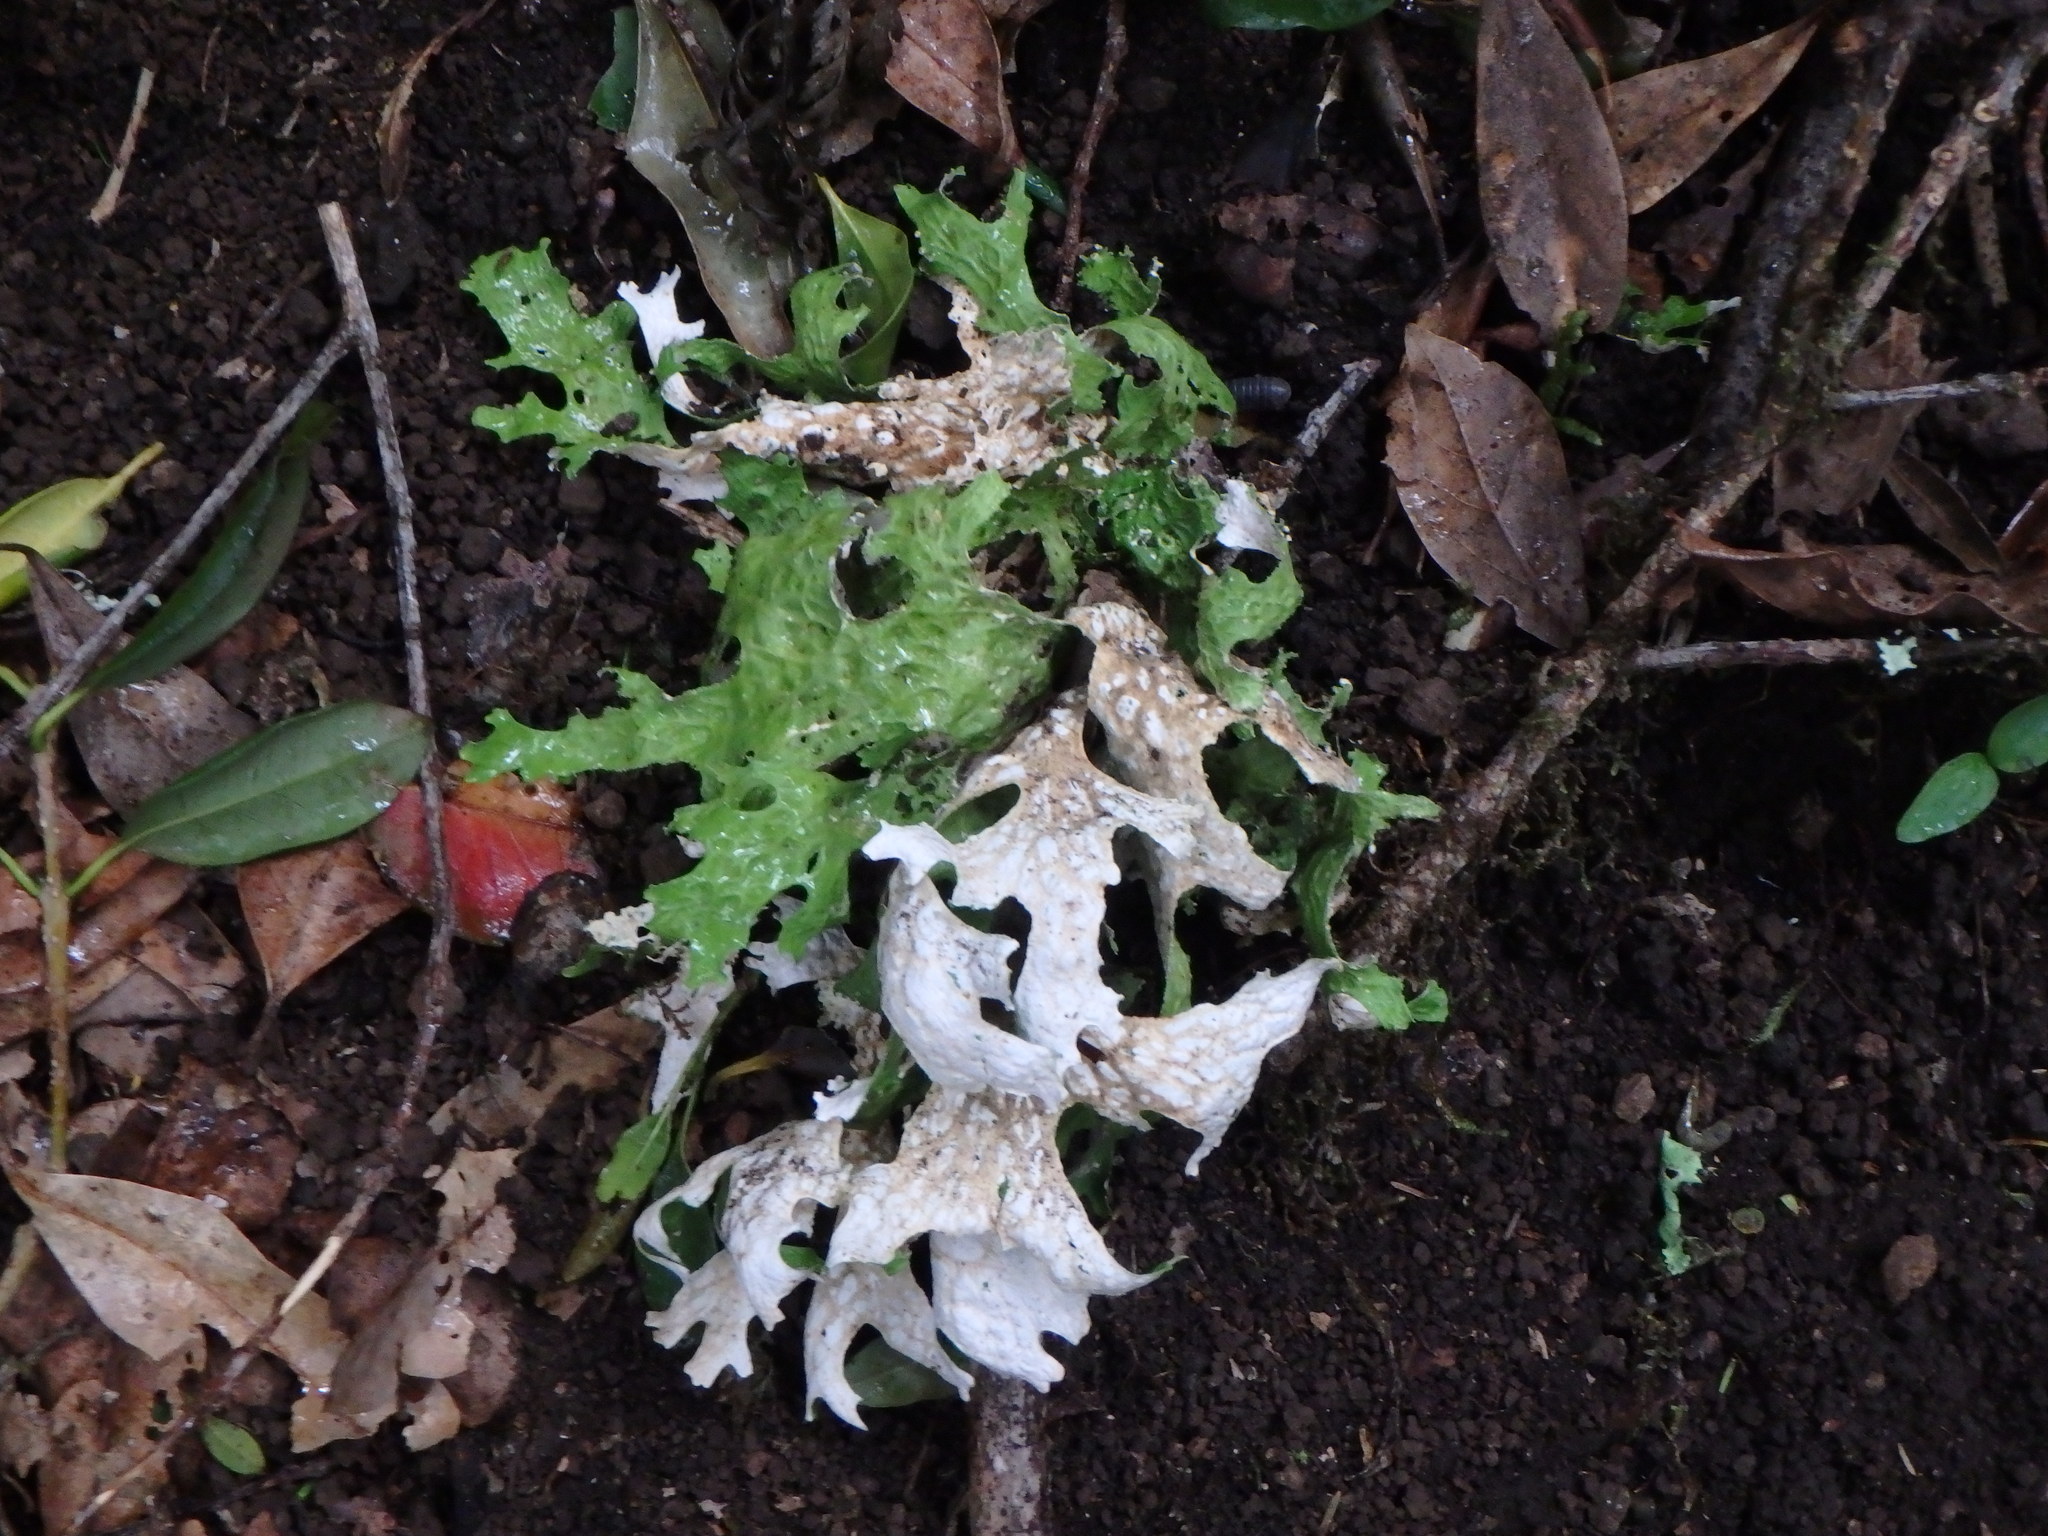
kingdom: Fungi
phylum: Ascomycota
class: Lecanoromycetes
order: Peltigerales
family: Lobariaceae
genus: Lobaria
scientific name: Lobaria pulmonaria
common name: Lungwort
